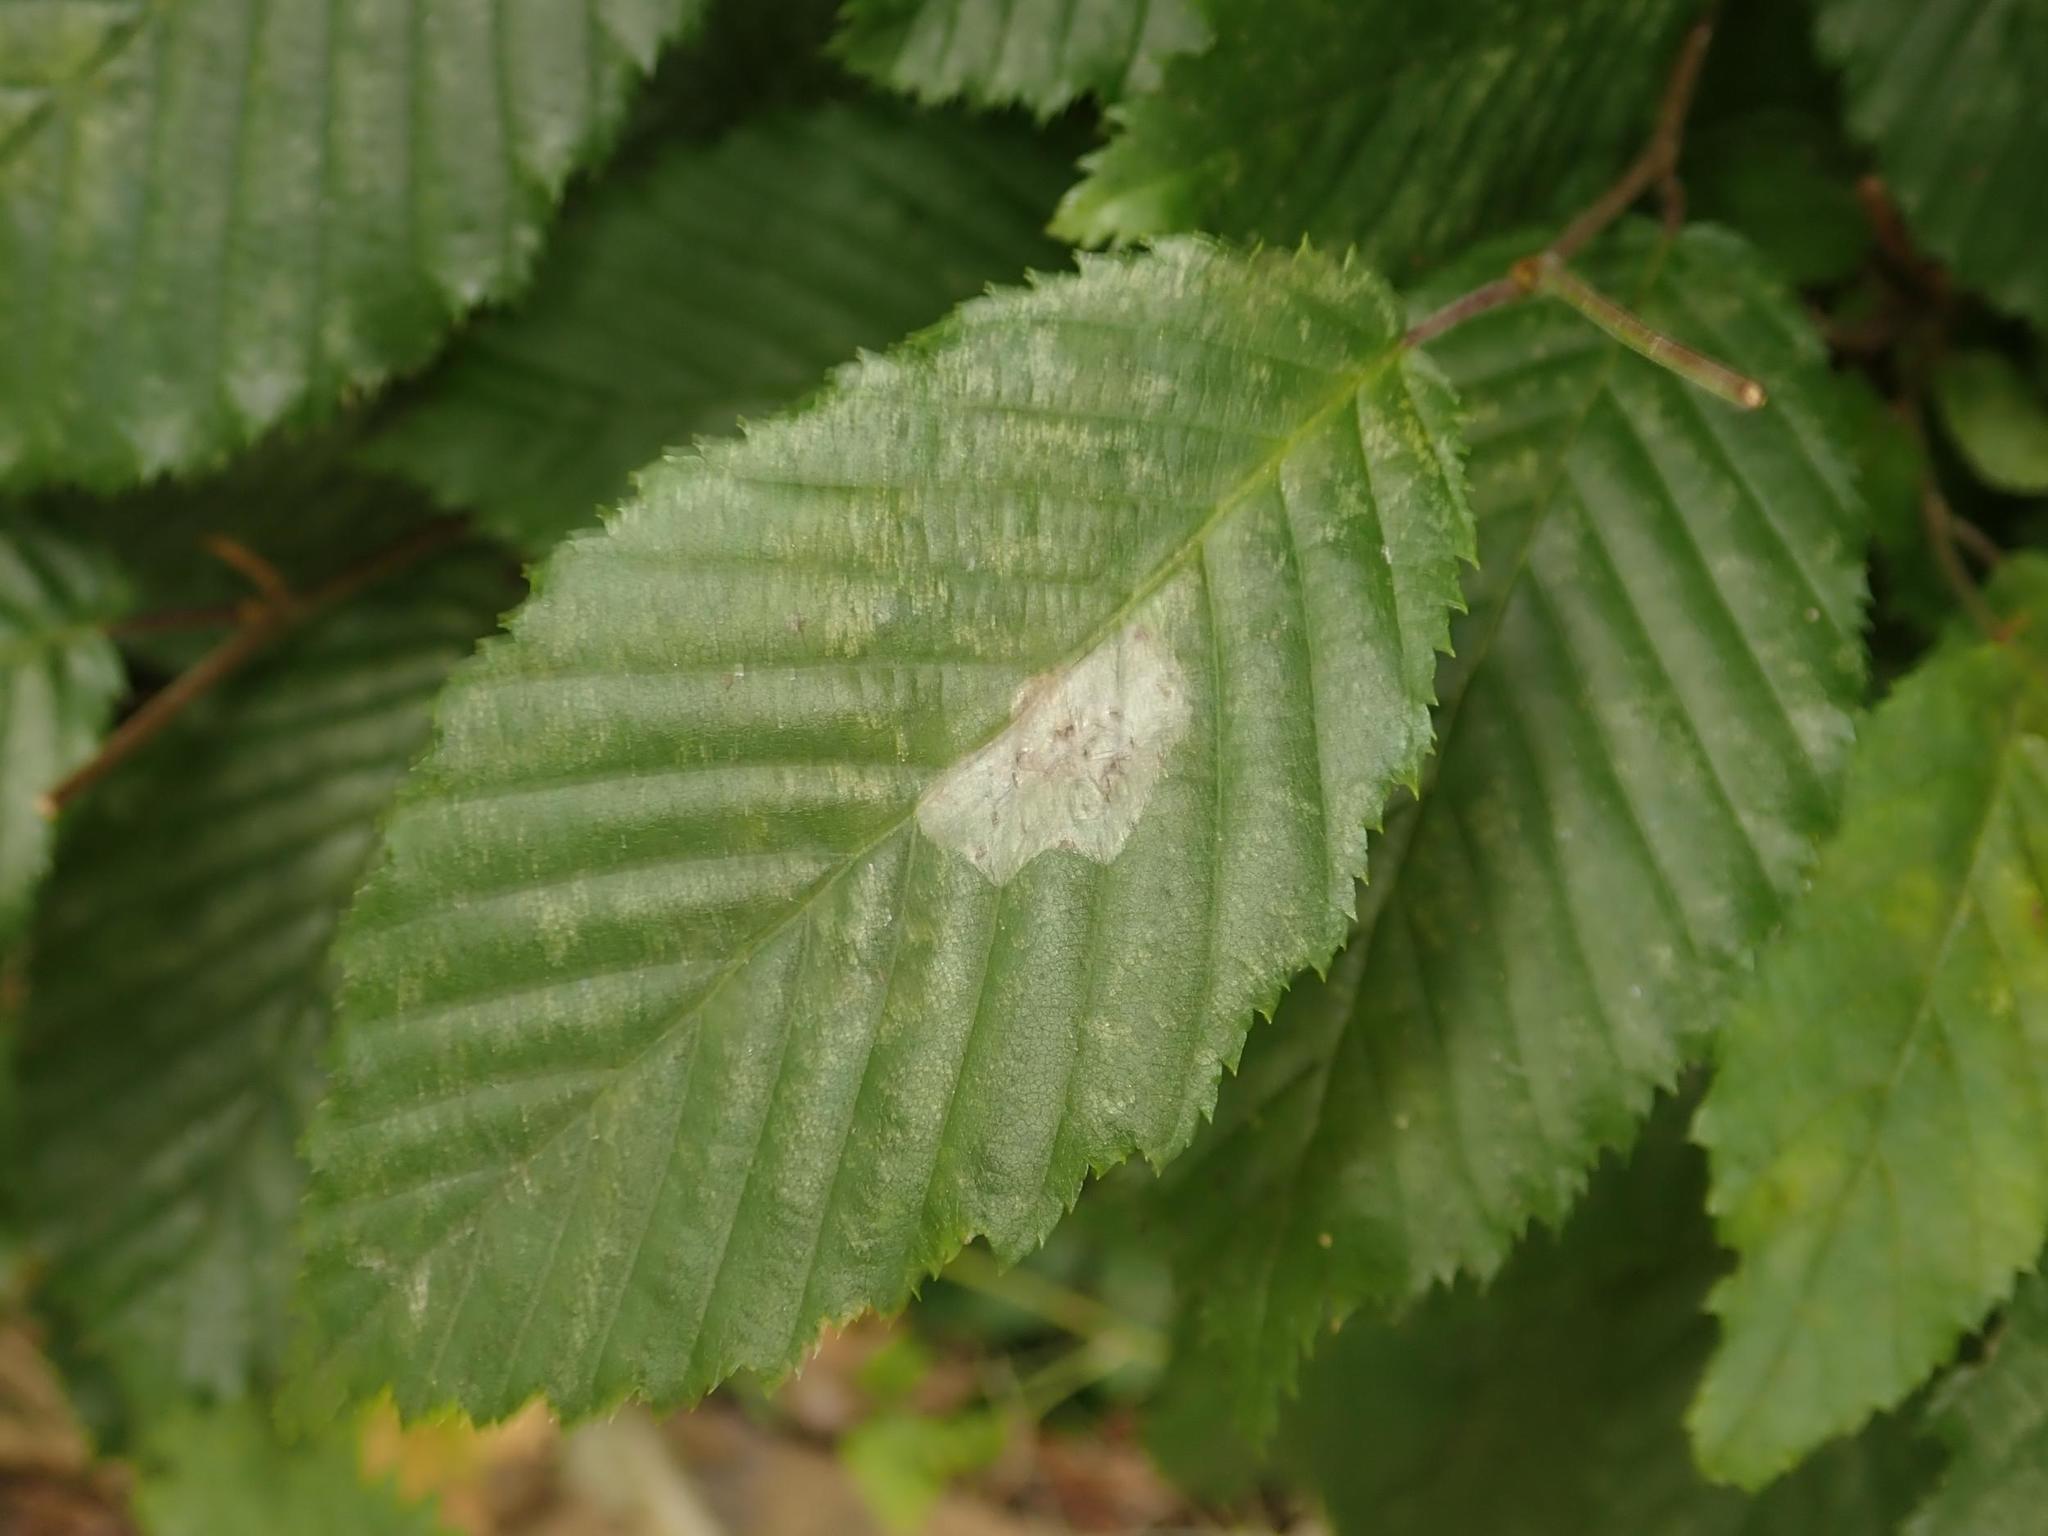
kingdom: Plantae
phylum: Tracheophyta
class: Magnoliopsida
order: Fagales
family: Betulaceae
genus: Carpinus
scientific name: Carpinus betulus
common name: Hornbeam
